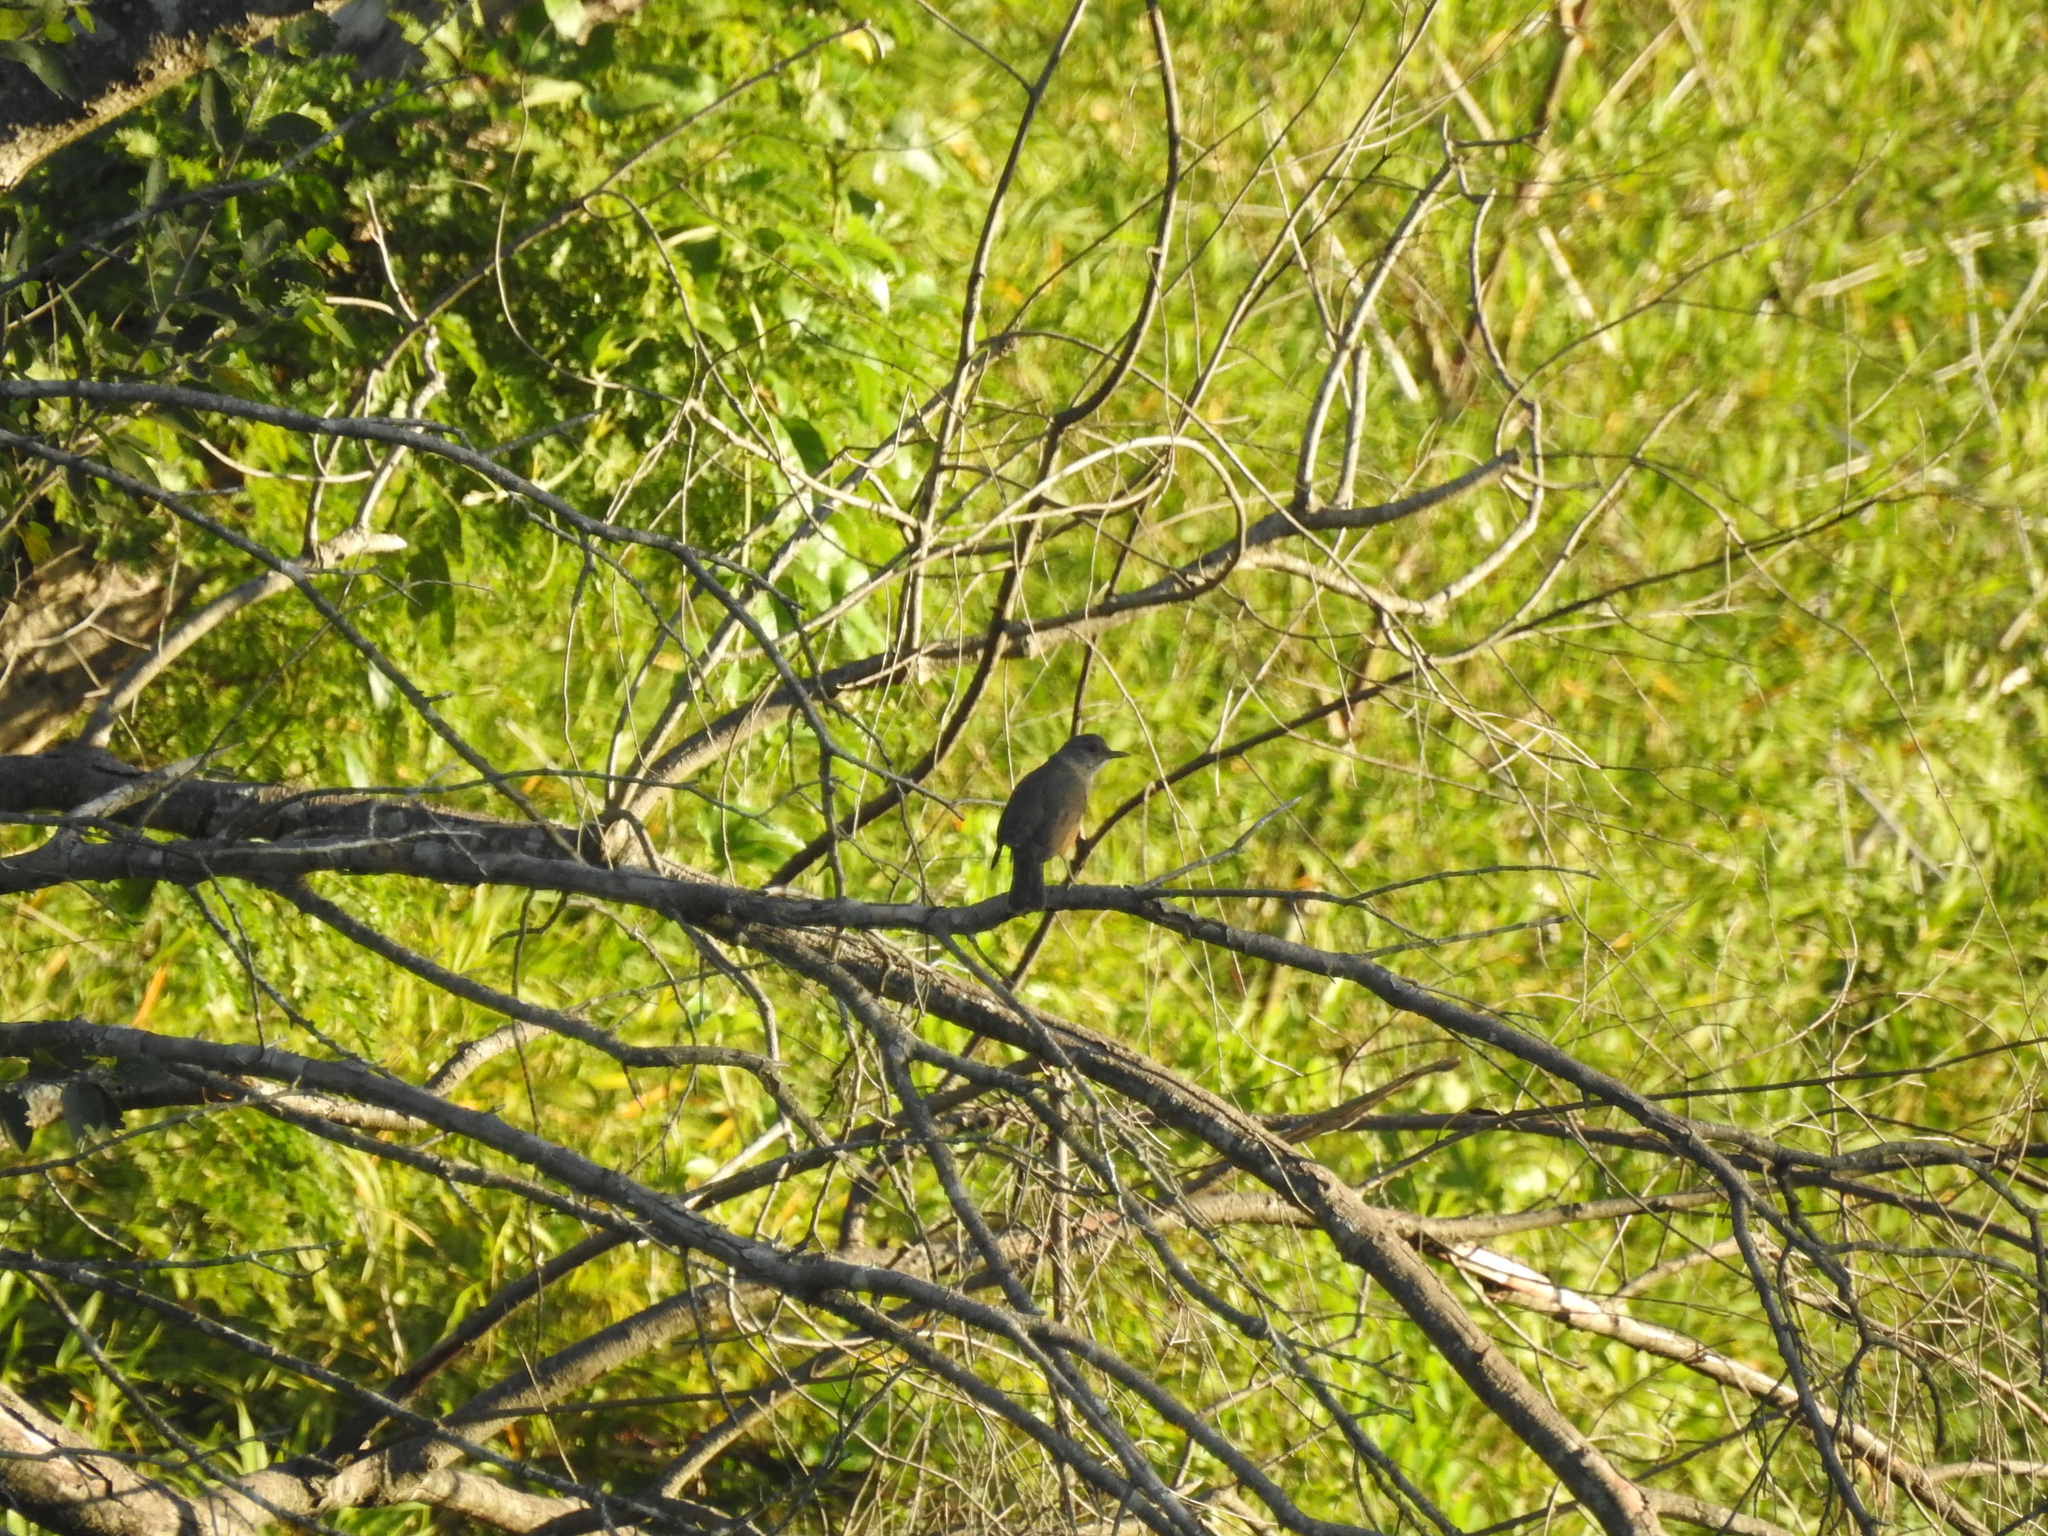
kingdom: Animalia
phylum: Chordata
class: Aves
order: Passeriformes
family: Turdidae
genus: Turdus
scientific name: Turdus rufiventris
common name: Rufous-bellied thrush
